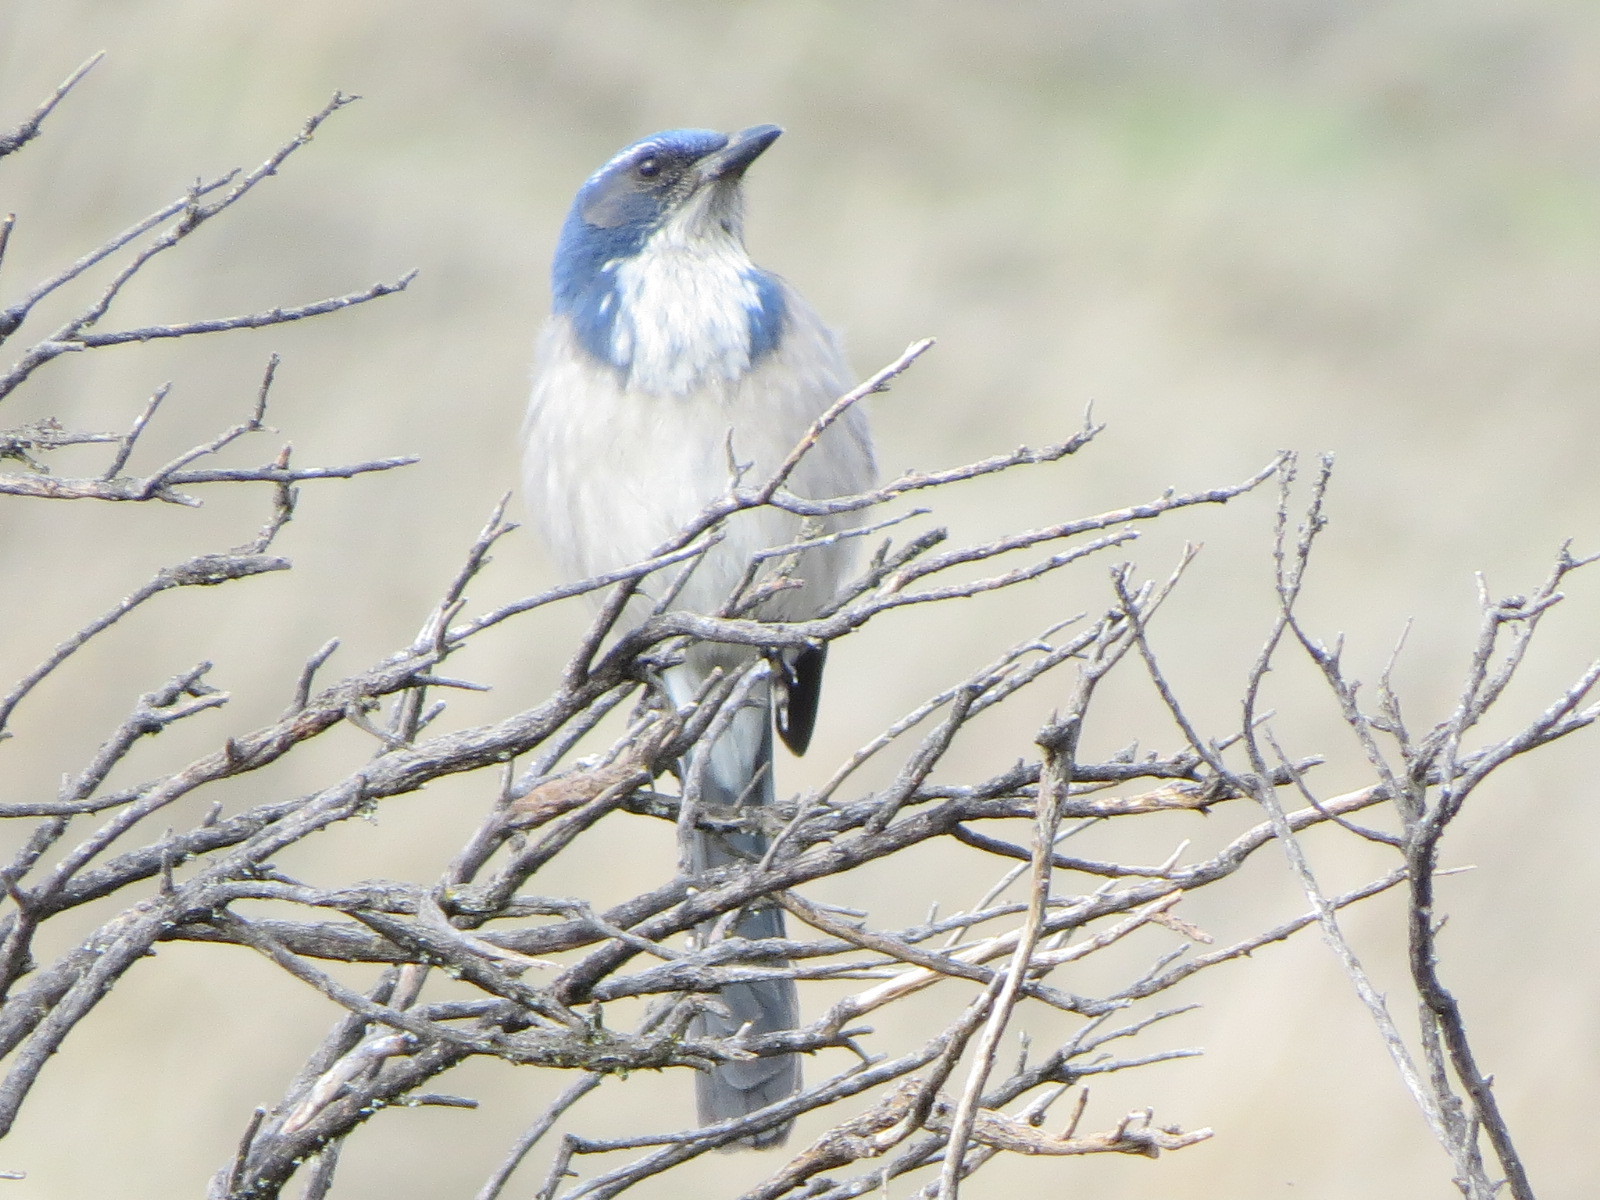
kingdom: Animalia
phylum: Chordata
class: Aves
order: Passeriformes
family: Corvidae
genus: Aphelocoma
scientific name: Aphelocoma californica
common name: California scrub-jay
